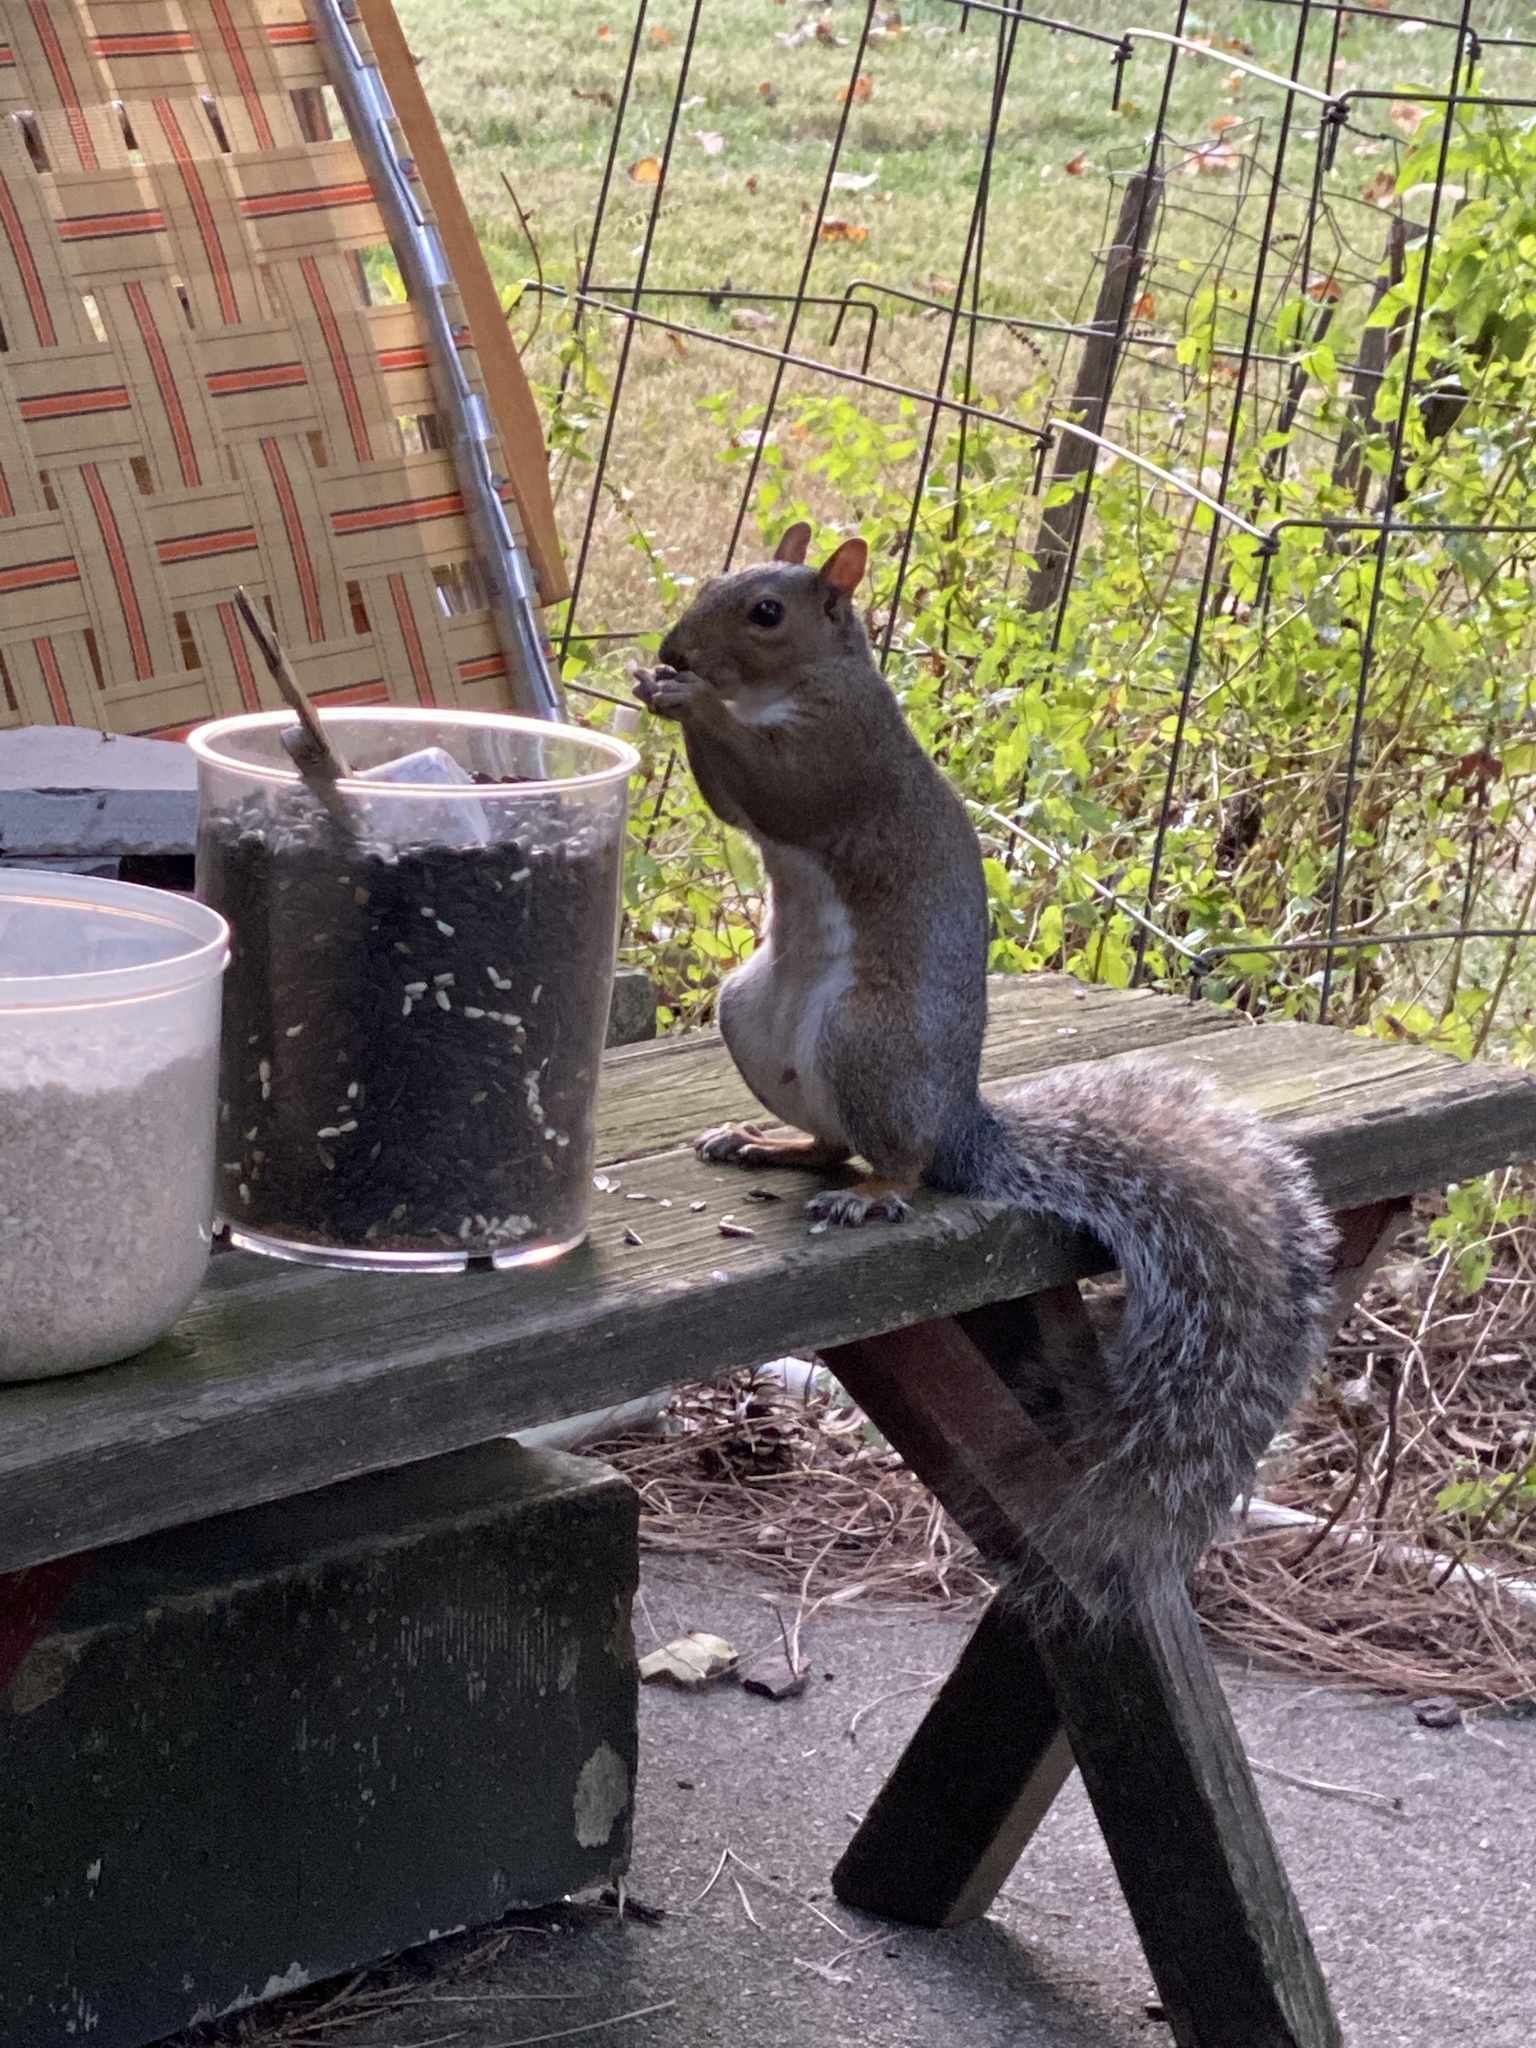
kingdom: Animalia
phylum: Chordata
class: Mammalia
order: Rodentia
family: Sciuridae
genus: Sciurus
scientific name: Sciurus carolinensis
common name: Eastern gray squirrel
